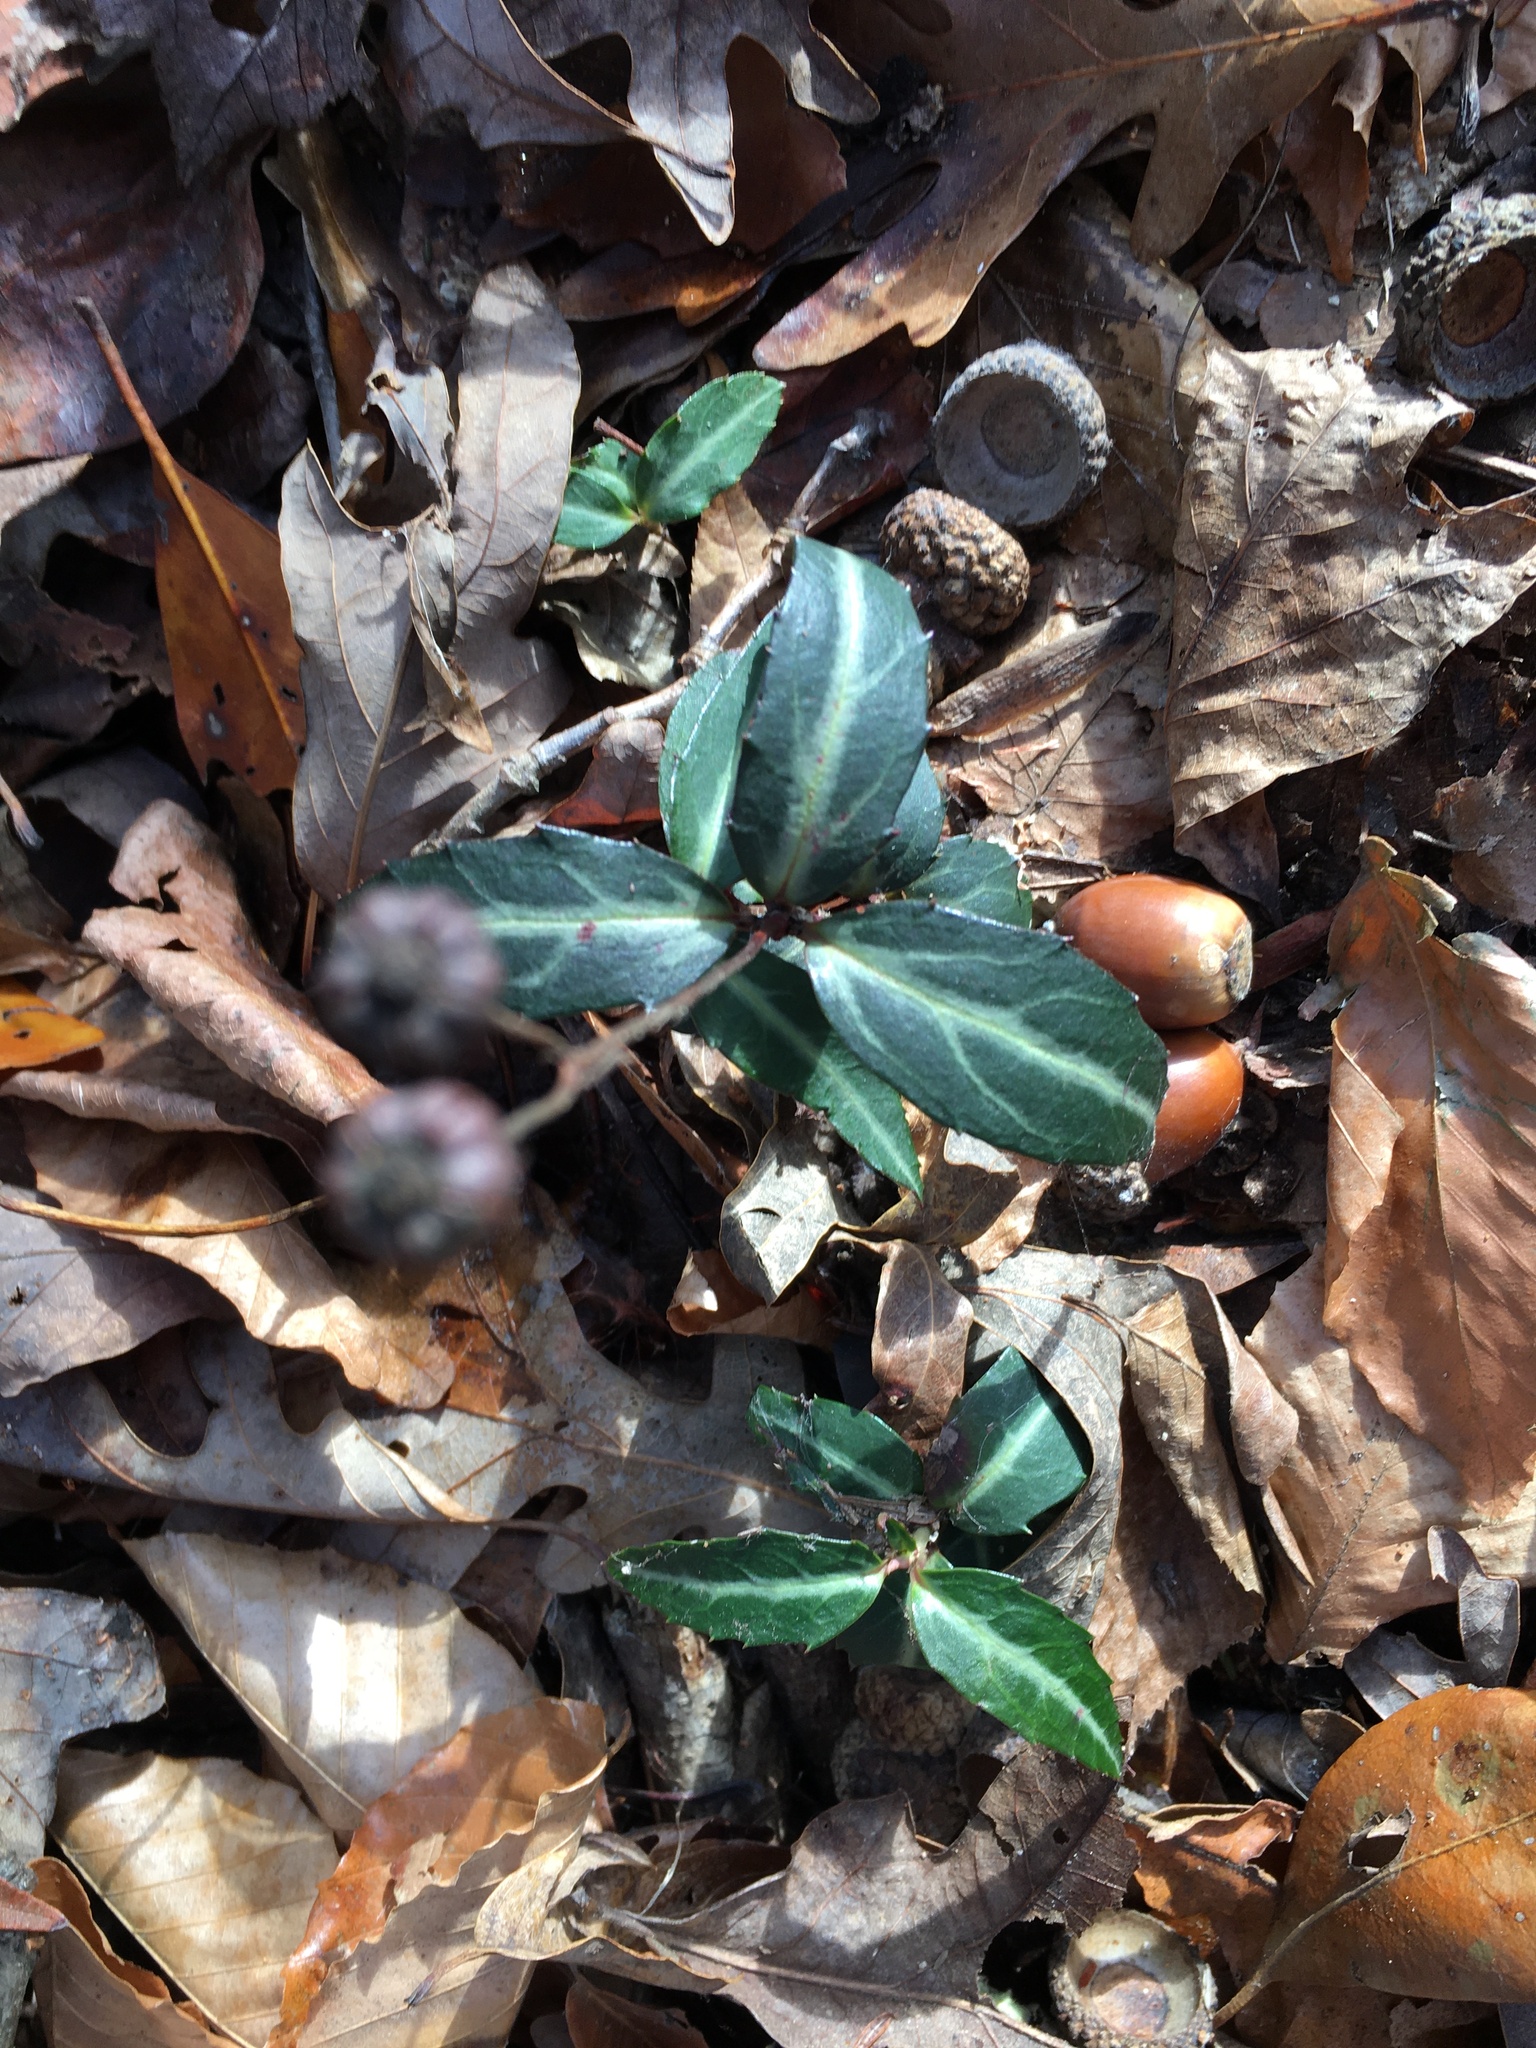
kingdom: Plantae
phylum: Tracheophyta
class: Magnoliopsida
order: Ericales
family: Ericaceae
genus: Chimaphila
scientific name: Chimaphila maculata
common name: Spotted pipsissewa
